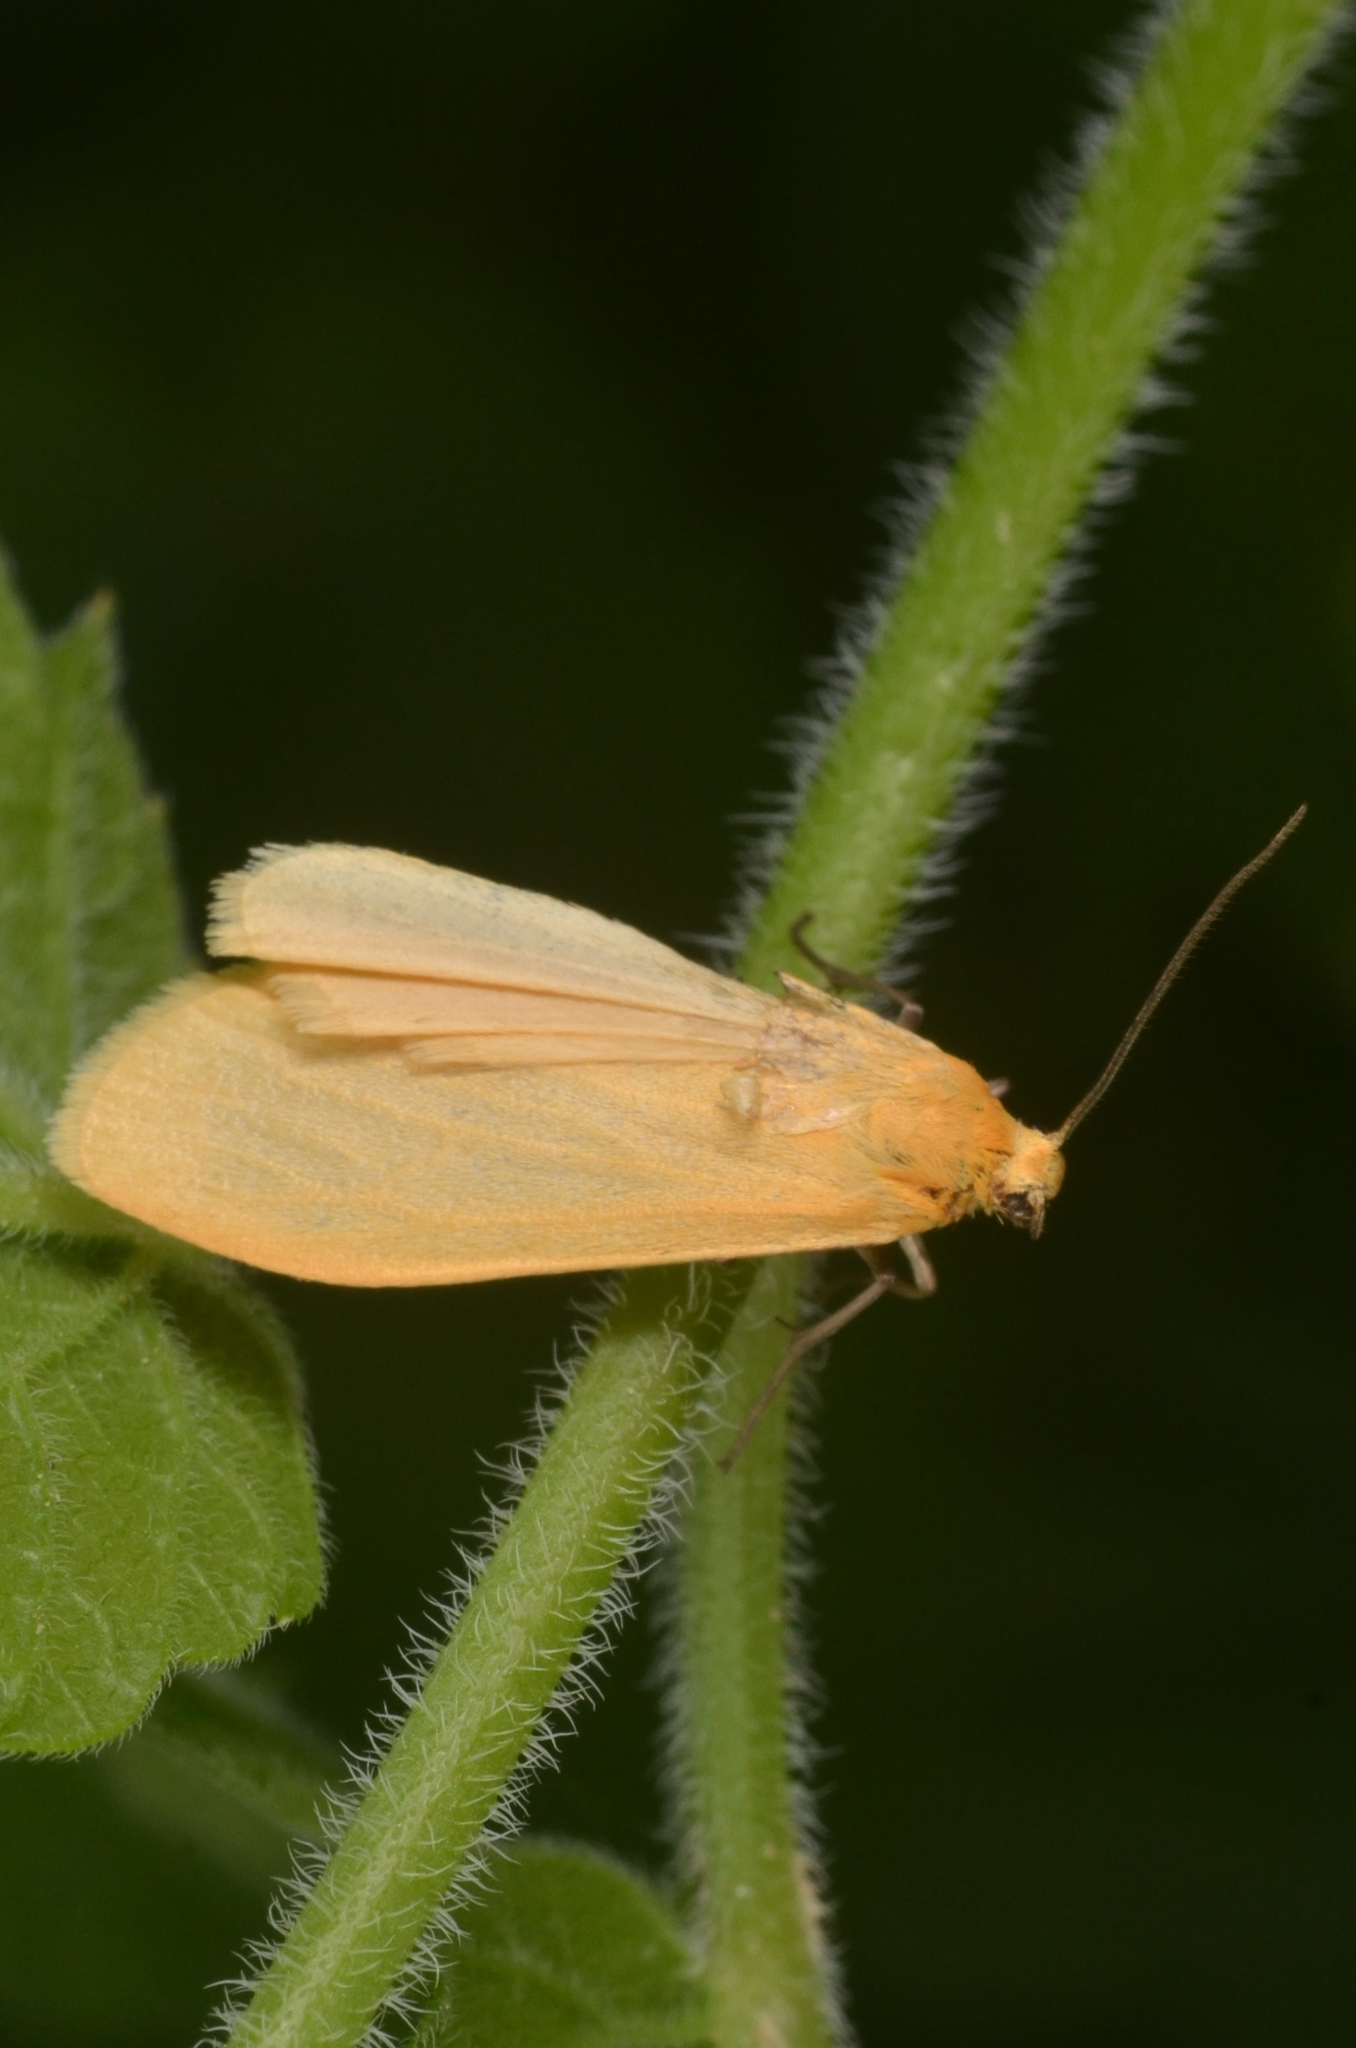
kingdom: Animalia
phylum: Arthropoda
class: Insecta
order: Lepidoptera
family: Erebidae
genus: Wittia
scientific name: Wittia sororcula
